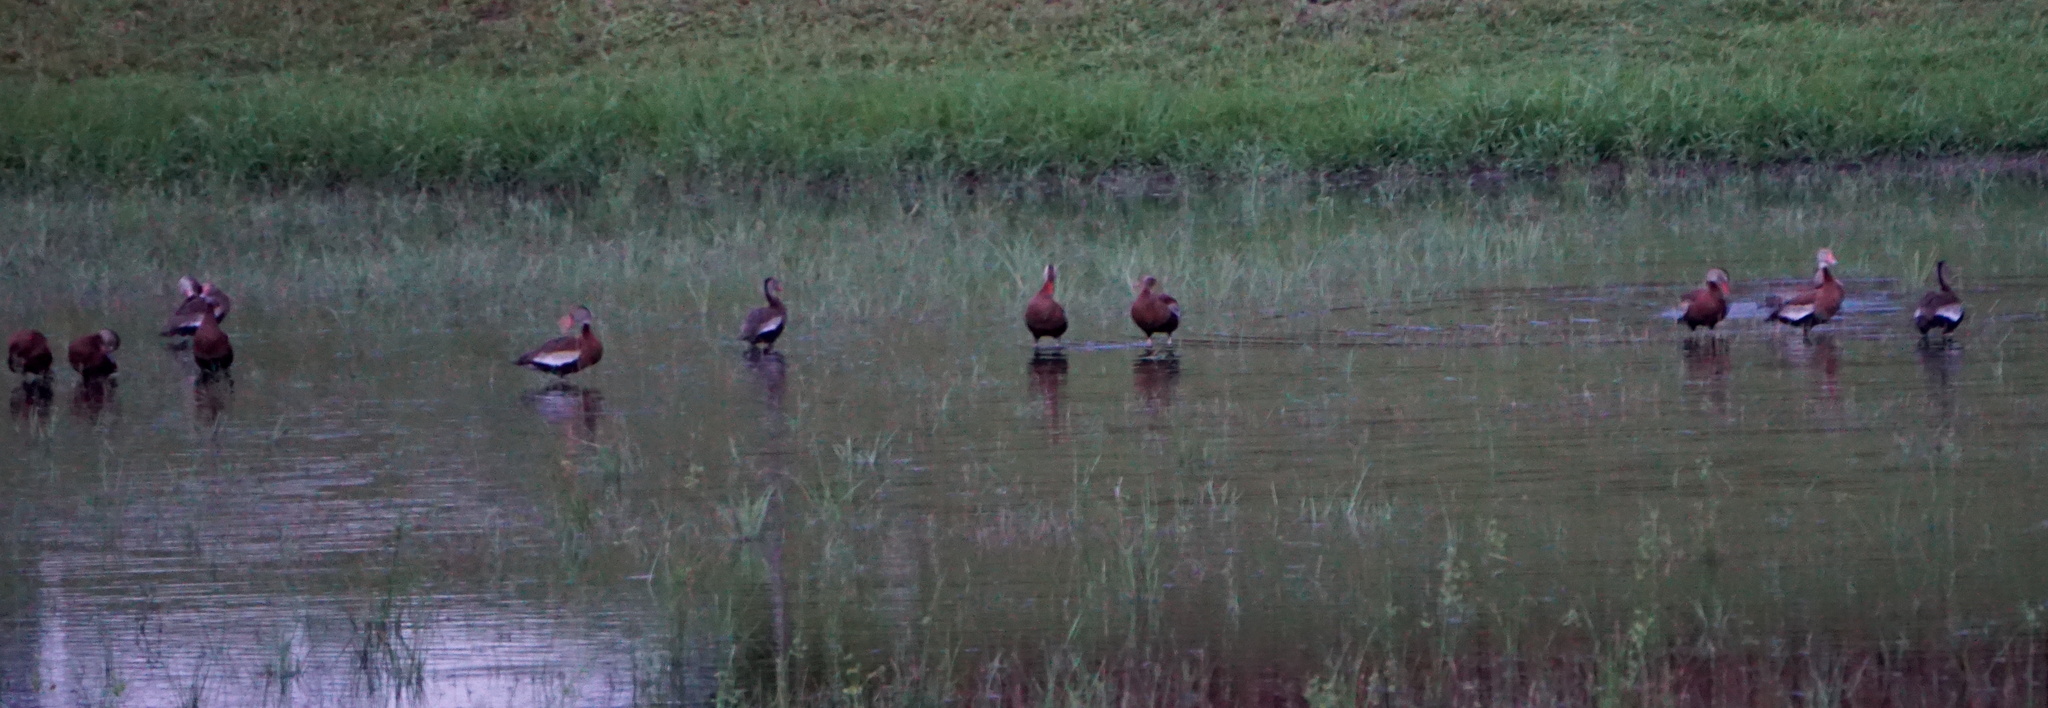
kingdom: Animalia
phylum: Chordata
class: Aves
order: Anseriformes
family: Anatidae
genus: Dendrocygna
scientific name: Dendrocygna autumnalis
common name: Black-bellied whistling duck
